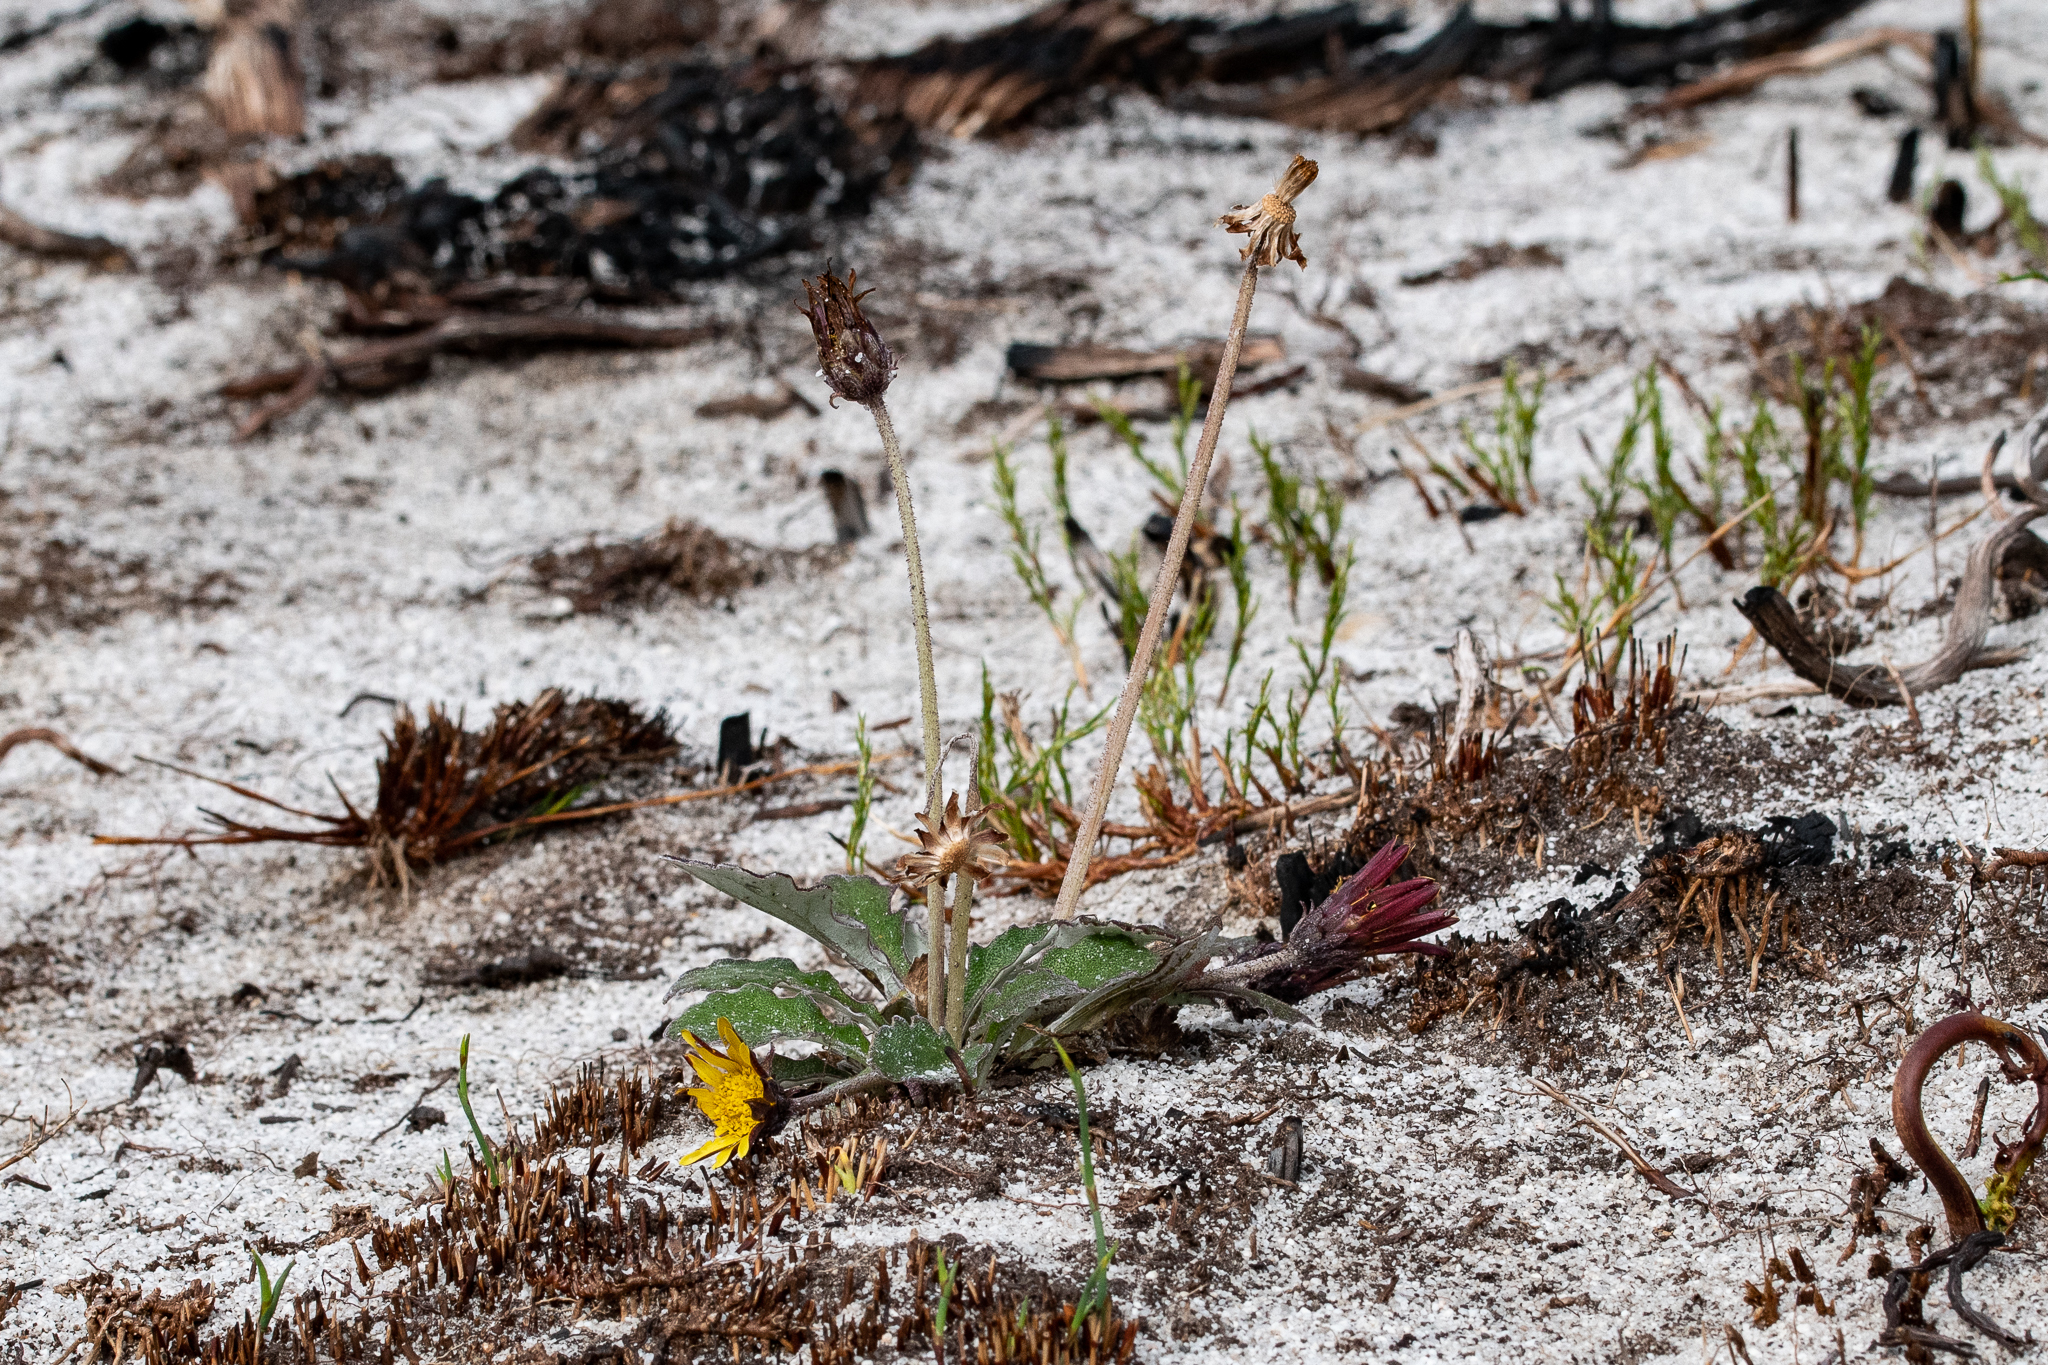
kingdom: Plantae
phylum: Tracheophyta
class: Magnoliopsida
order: Asterales
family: Asteraceae
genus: Haplocarpha
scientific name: Haplocarpha lanata
